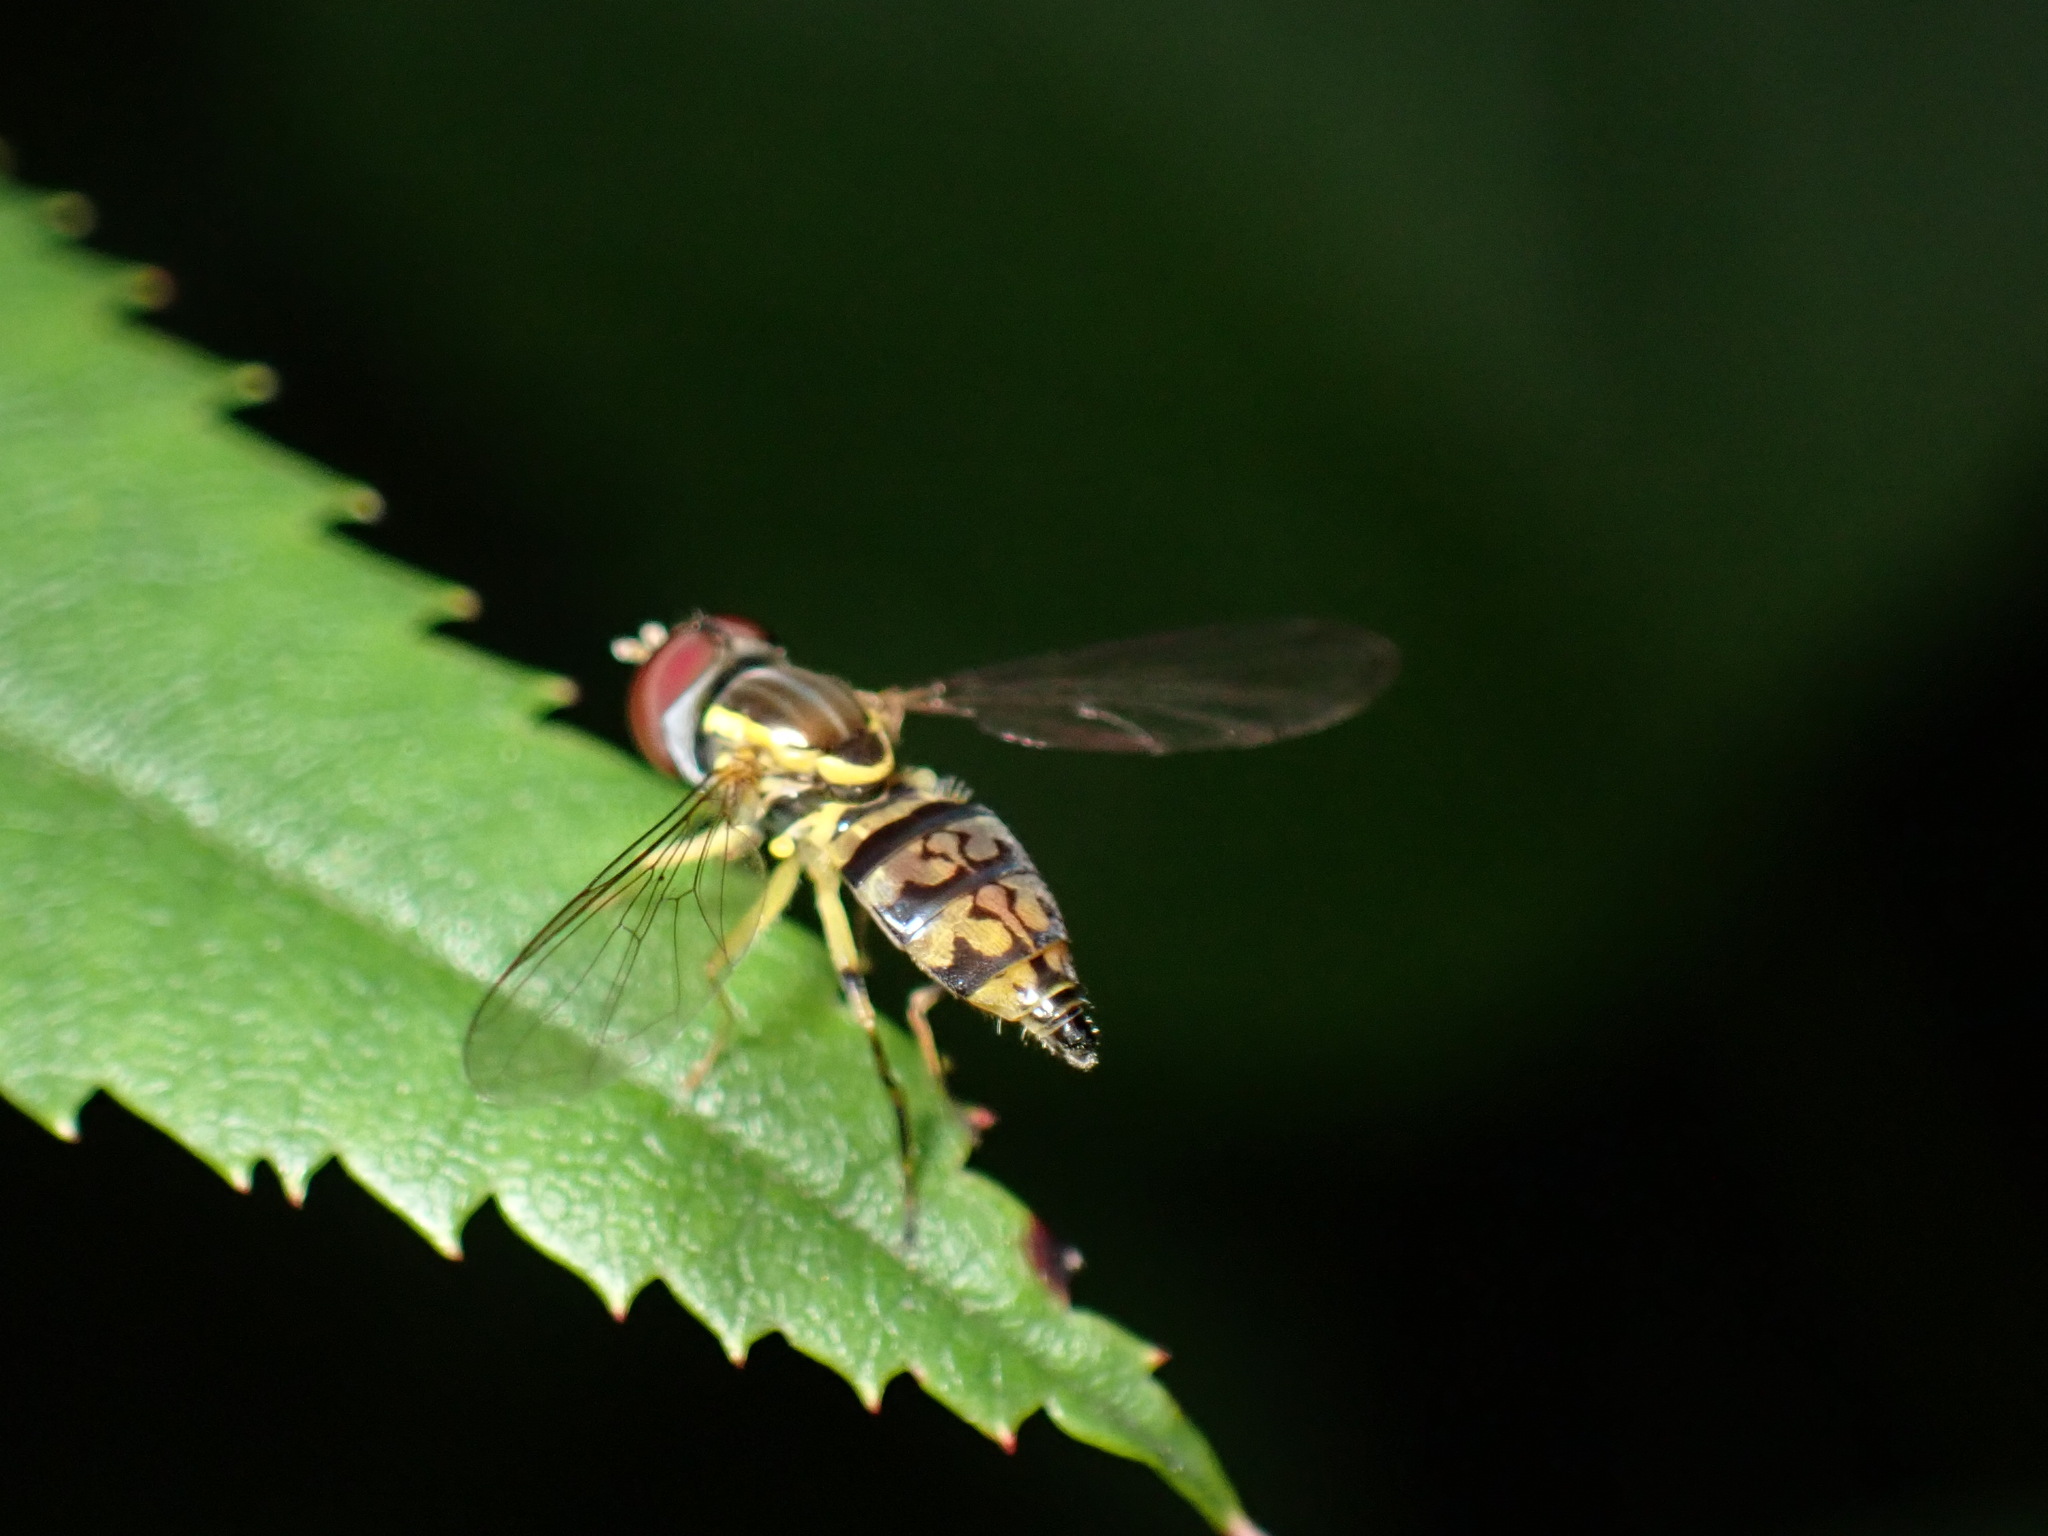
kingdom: Animalia
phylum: Arthropoda
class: Insecta
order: Diptera
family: Syrphidae
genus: Toxomerus
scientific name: Toxomerus geminatus
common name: Eastern calligrapher
